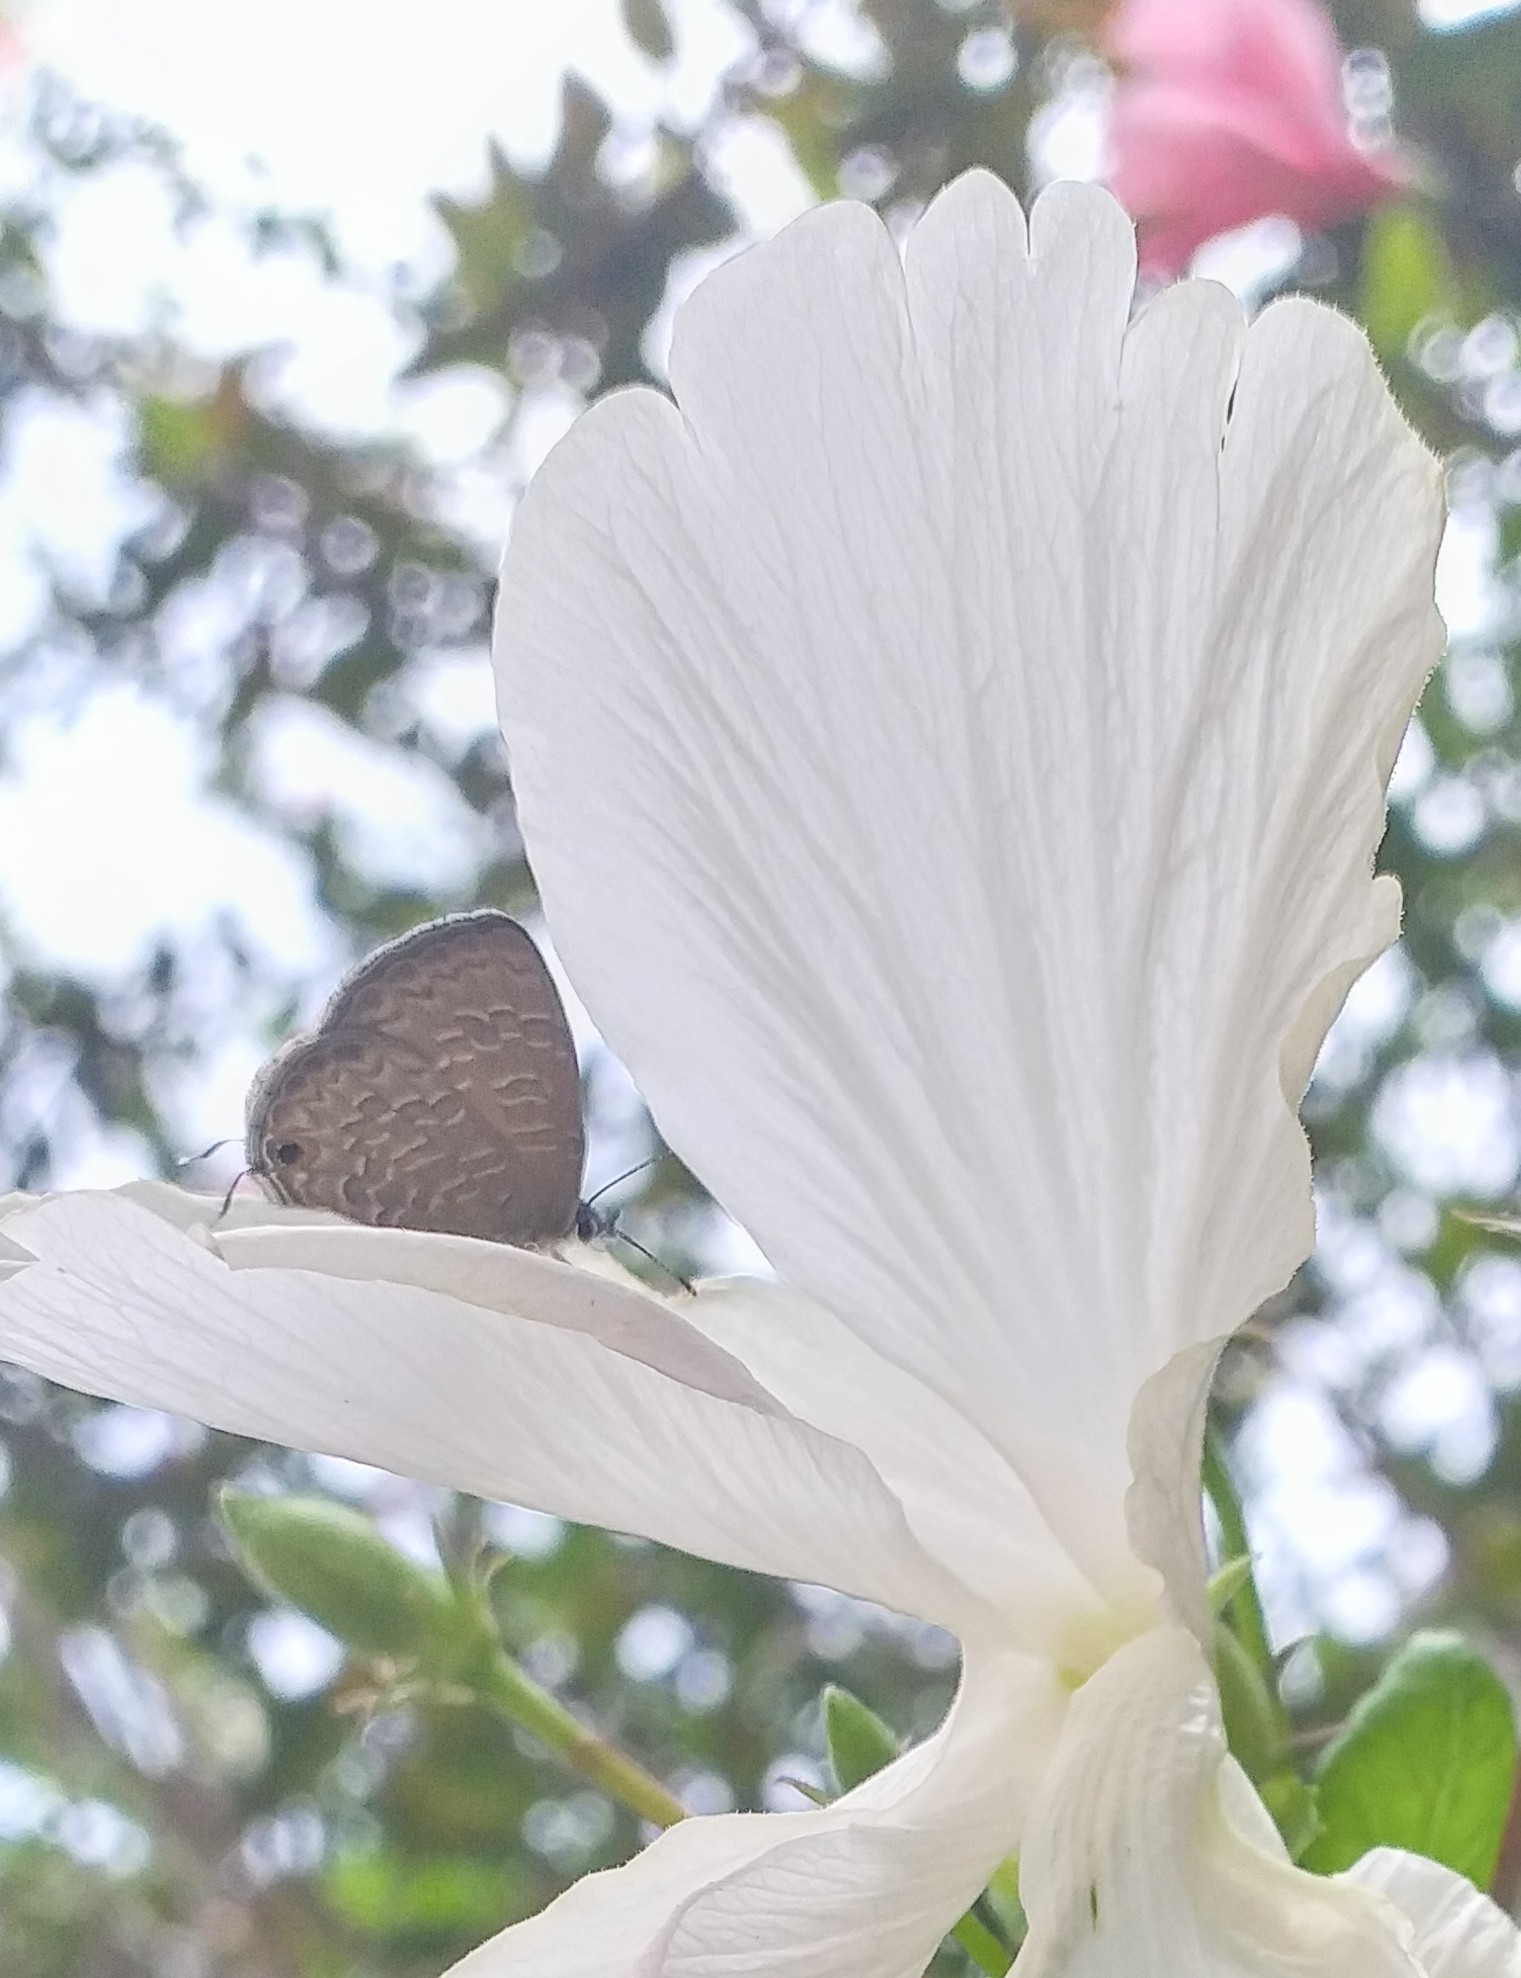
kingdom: Animalia
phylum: Arthropoda
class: Insecta
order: Lepidoptera
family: Lycaenidae
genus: Prosotas
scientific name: Prosotas nora
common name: Common line blue
